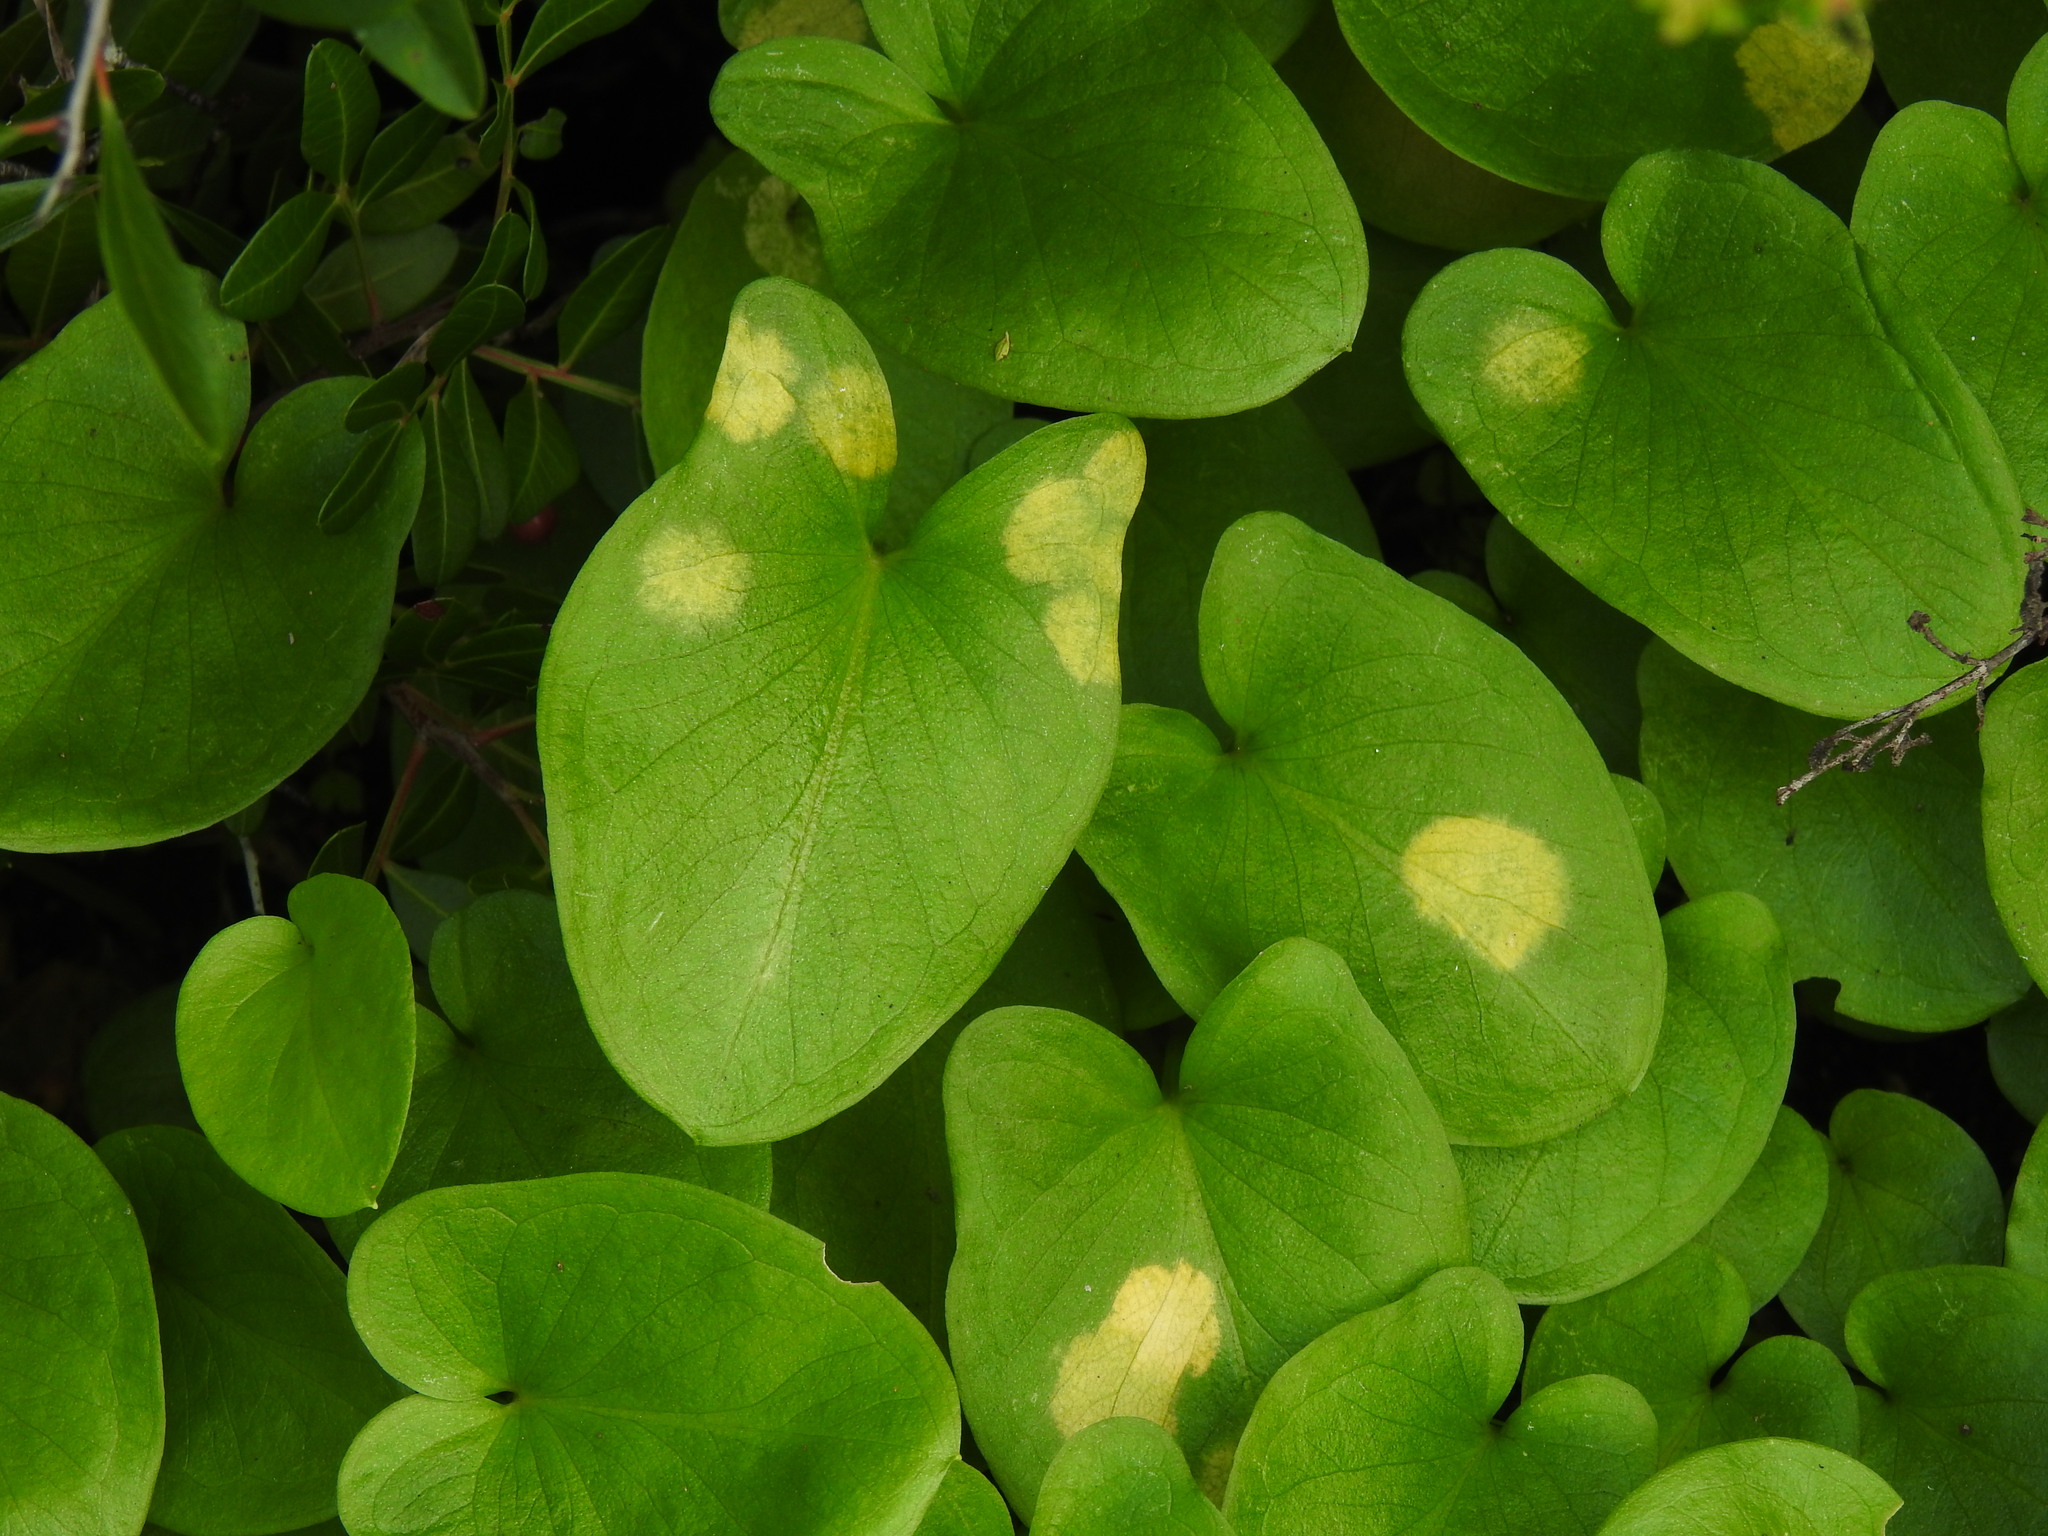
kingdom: Chromista
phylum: Ochrophyta
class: Xanthophyceae
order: Phyllosiphonales
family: Phyllosiphonaceae
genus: Phyllosiphon
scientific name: Phyllosiphon arisari
